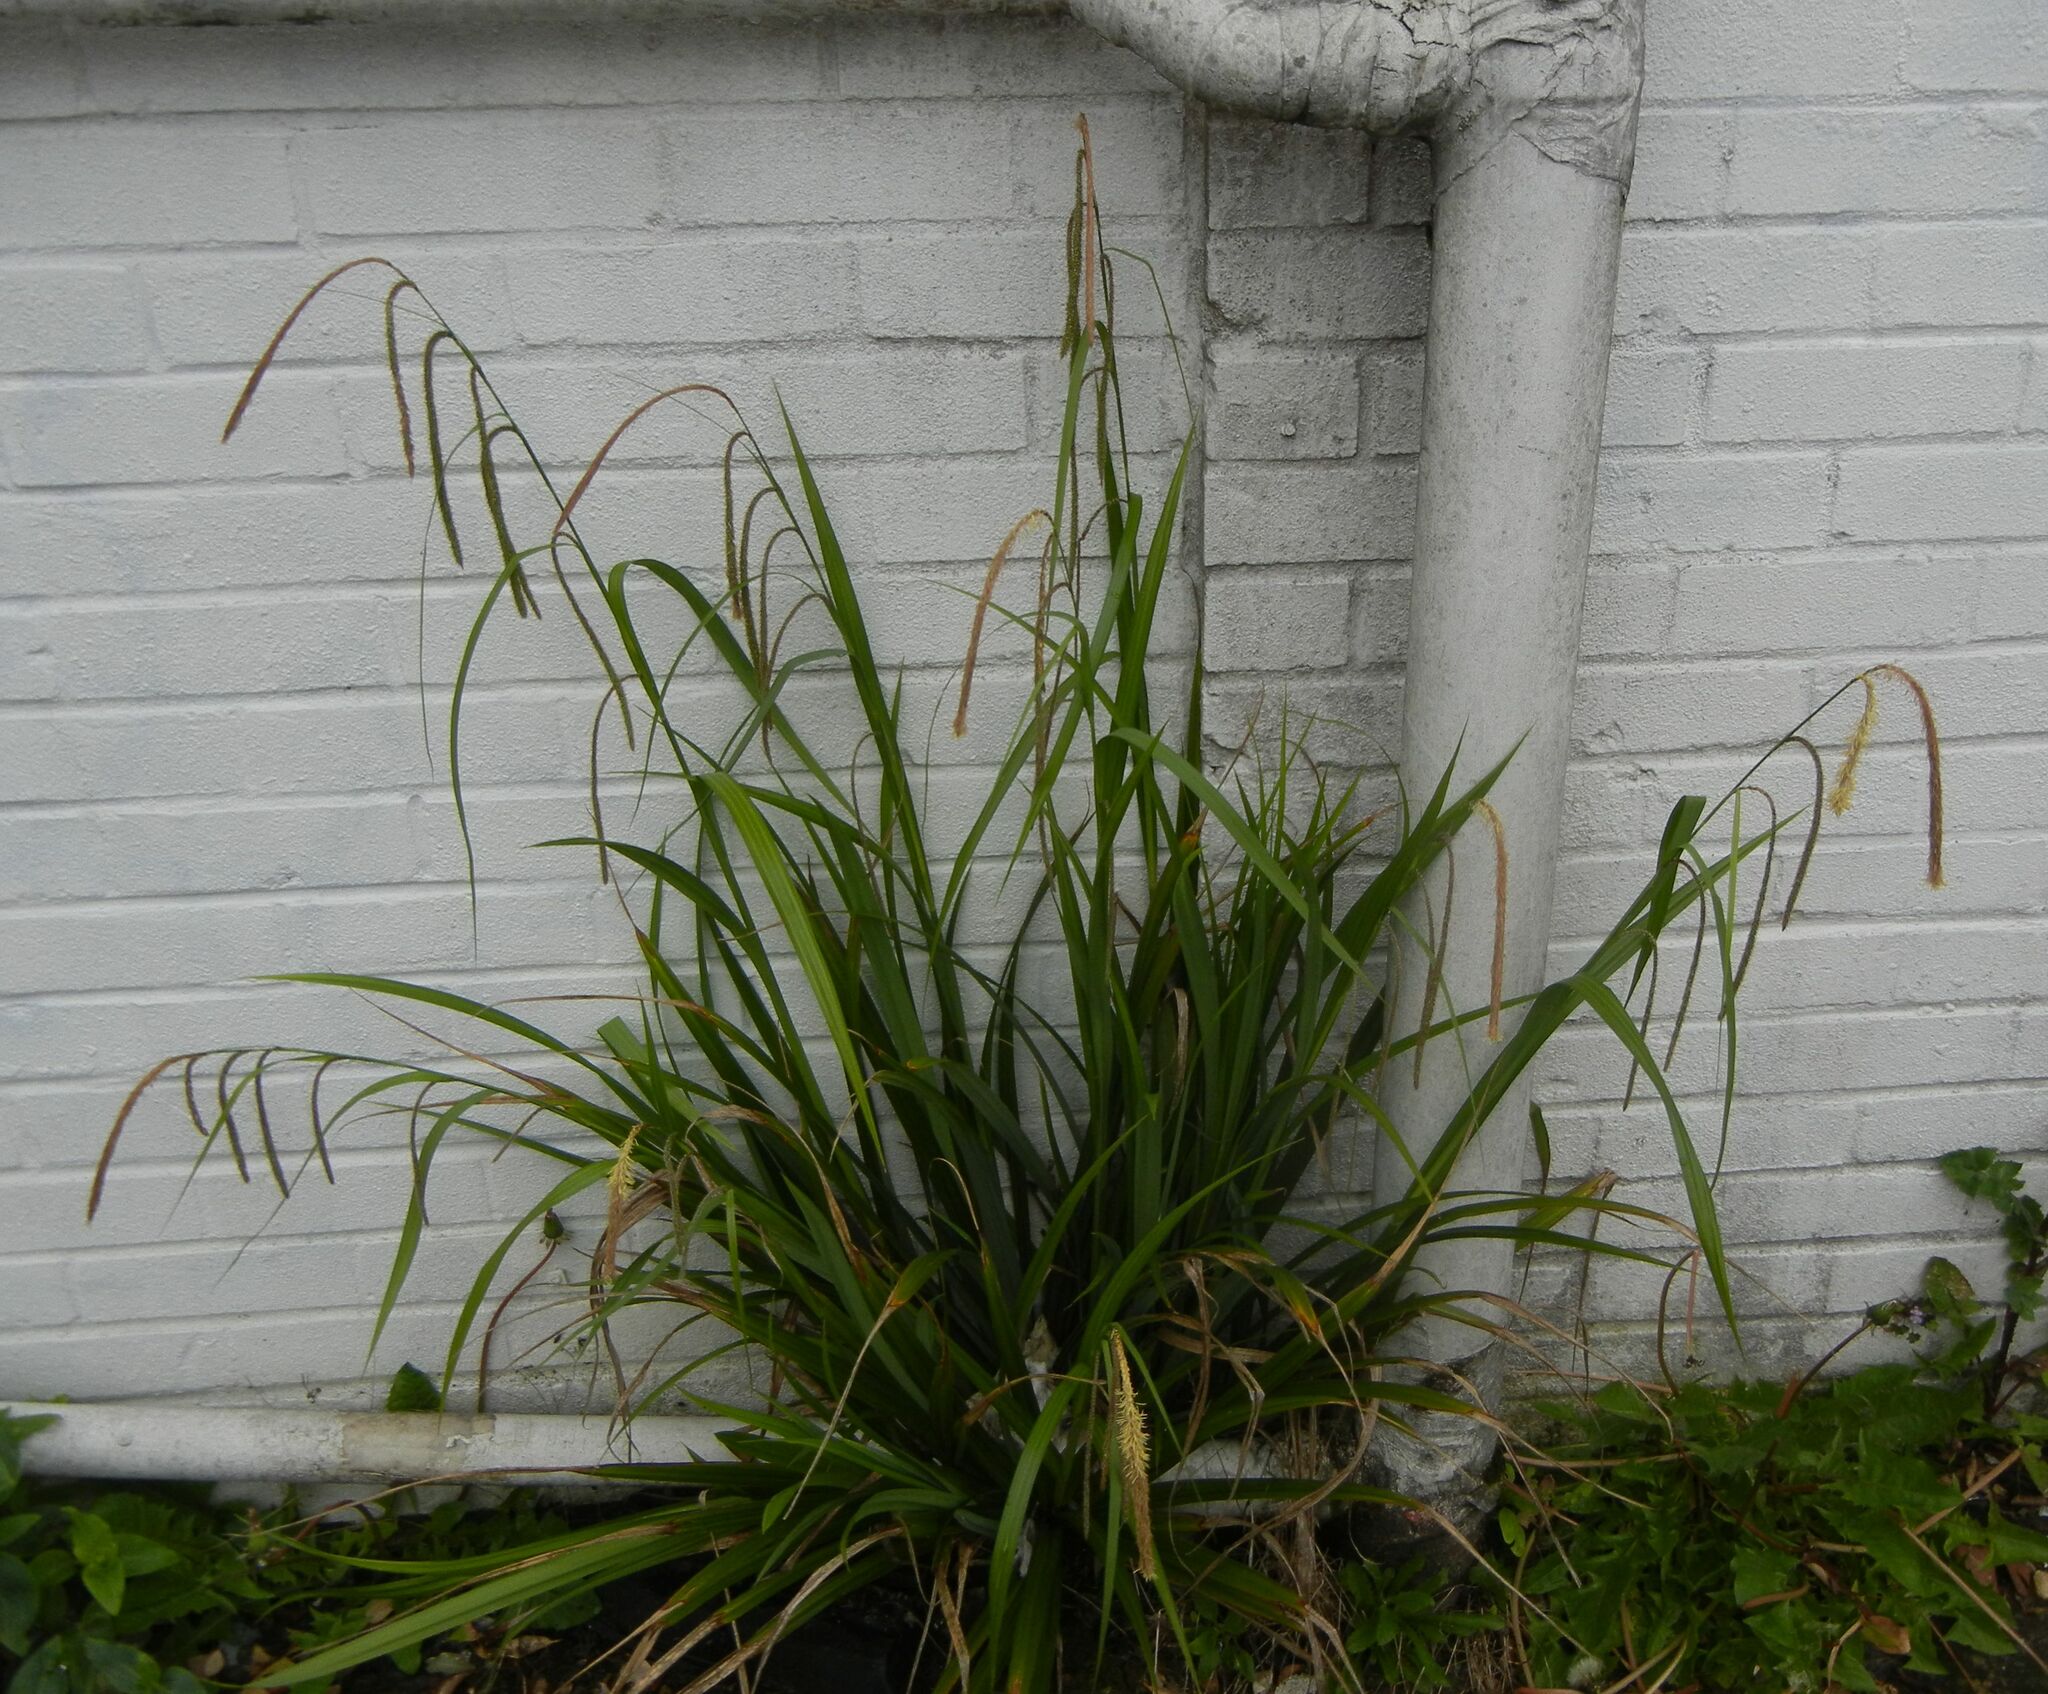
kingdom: Plantae
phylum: Tracheophyta
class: Liliopsida
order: Poales
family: Cyperaceae
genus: Carex
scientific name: Carex pendula
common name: Pendulous sedge
